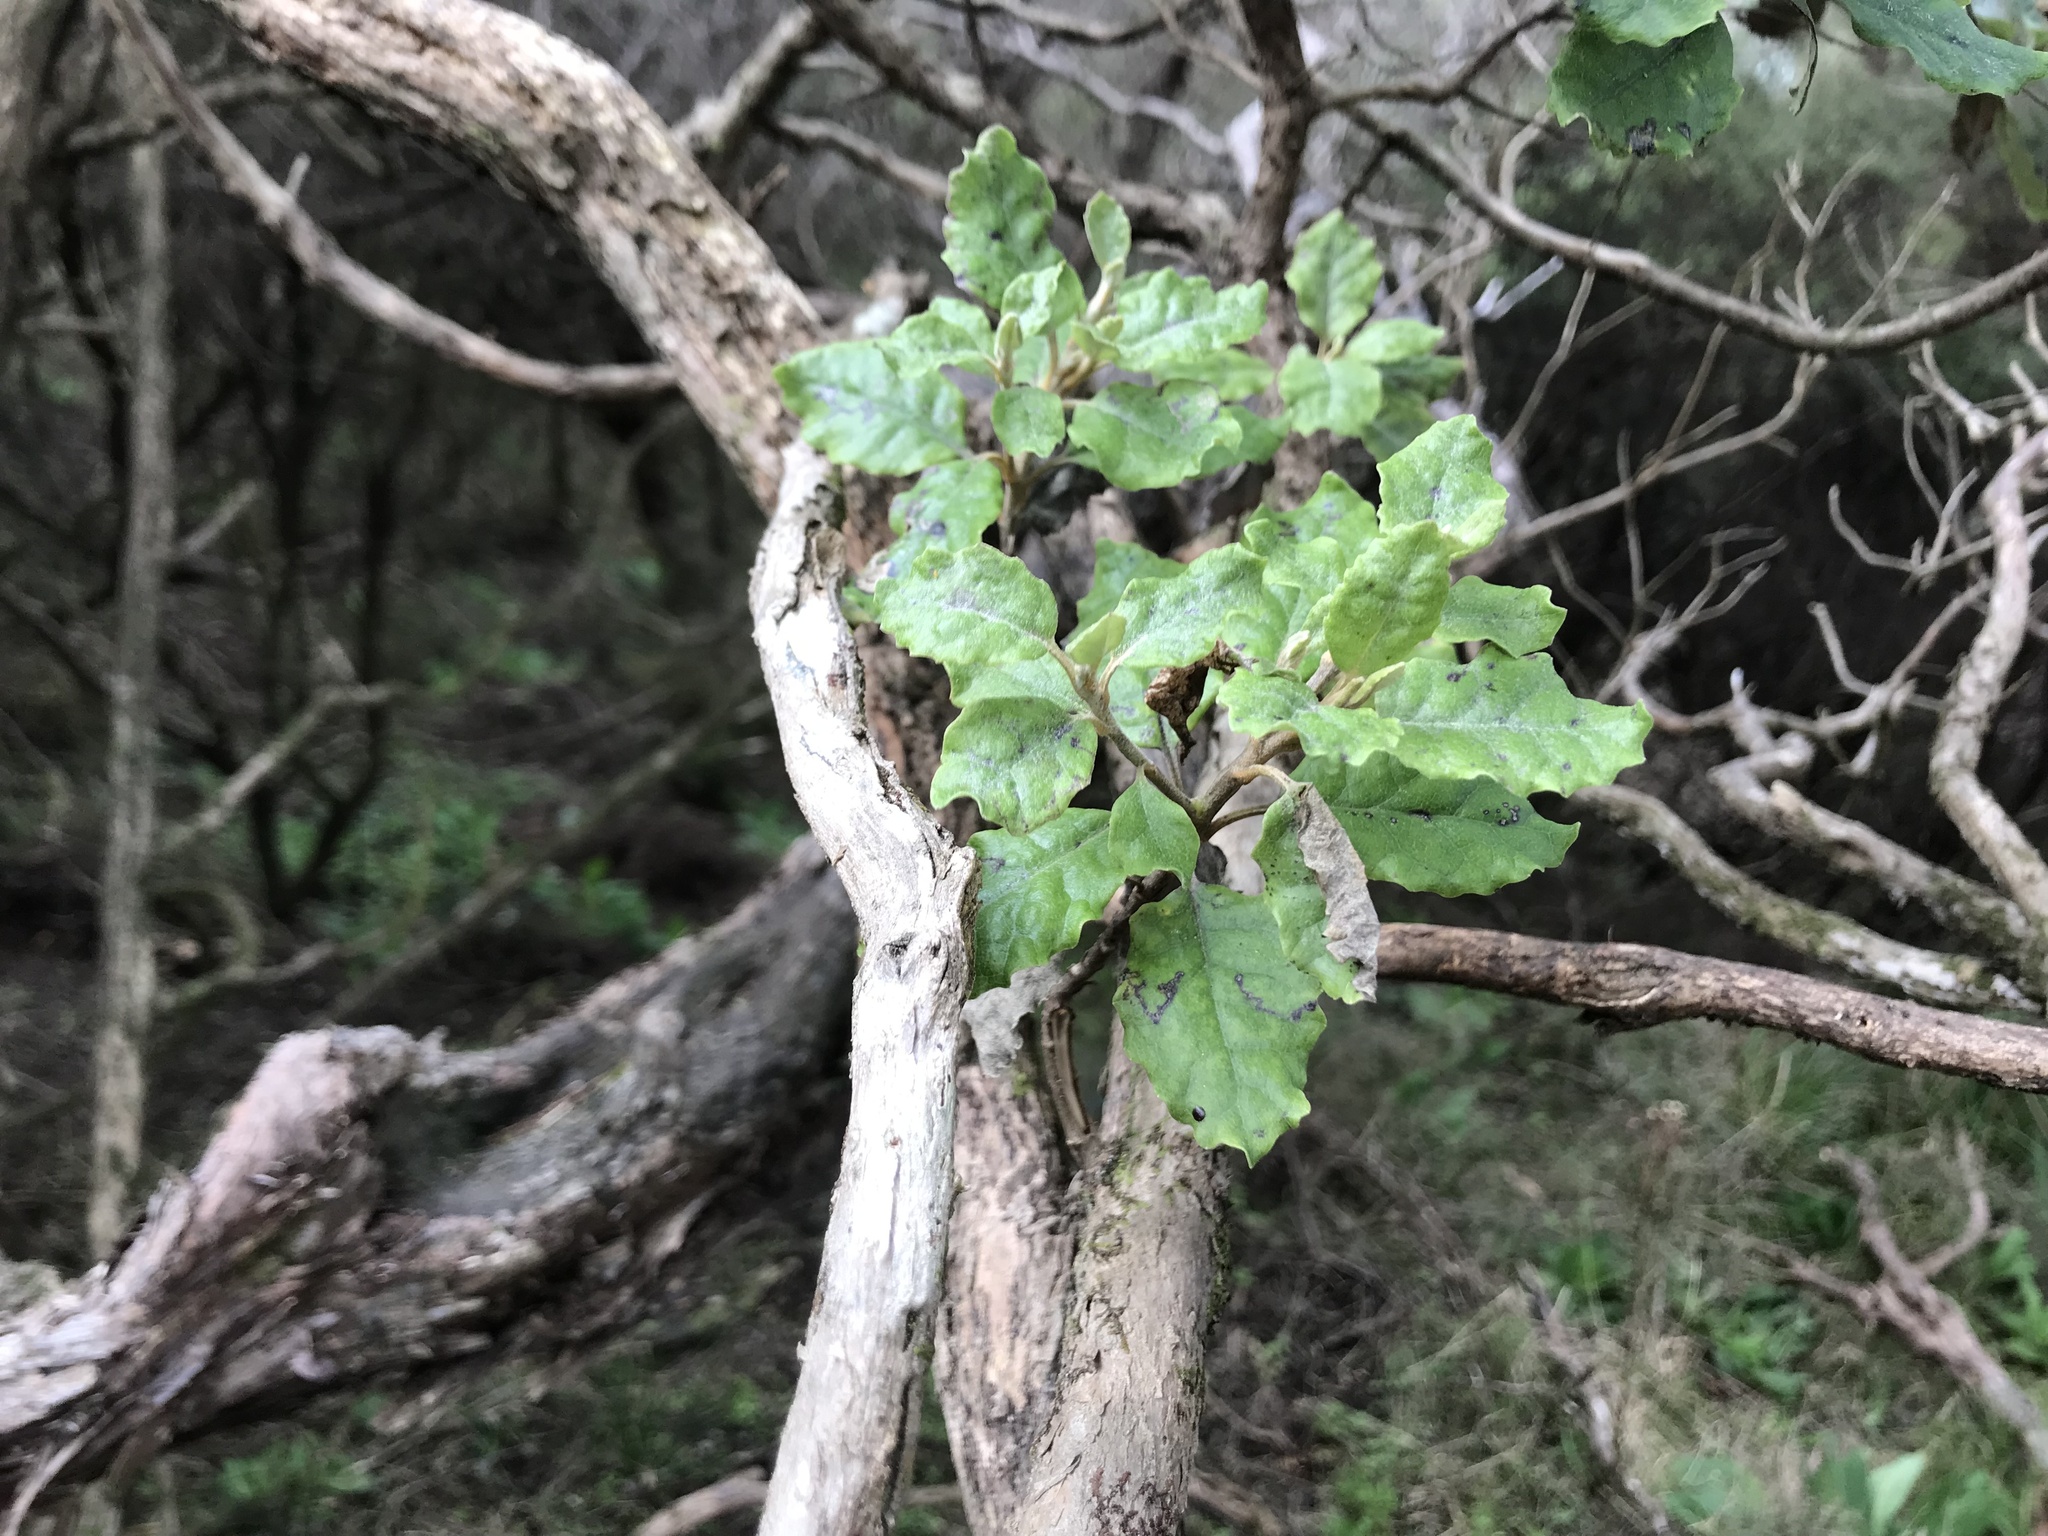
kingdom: Plantae
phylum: Tracheophyta
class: Magnoliopsida
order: Asterales
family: Asteraceae
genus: Brachyglottis
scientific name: Brachyglottis pentacopa
